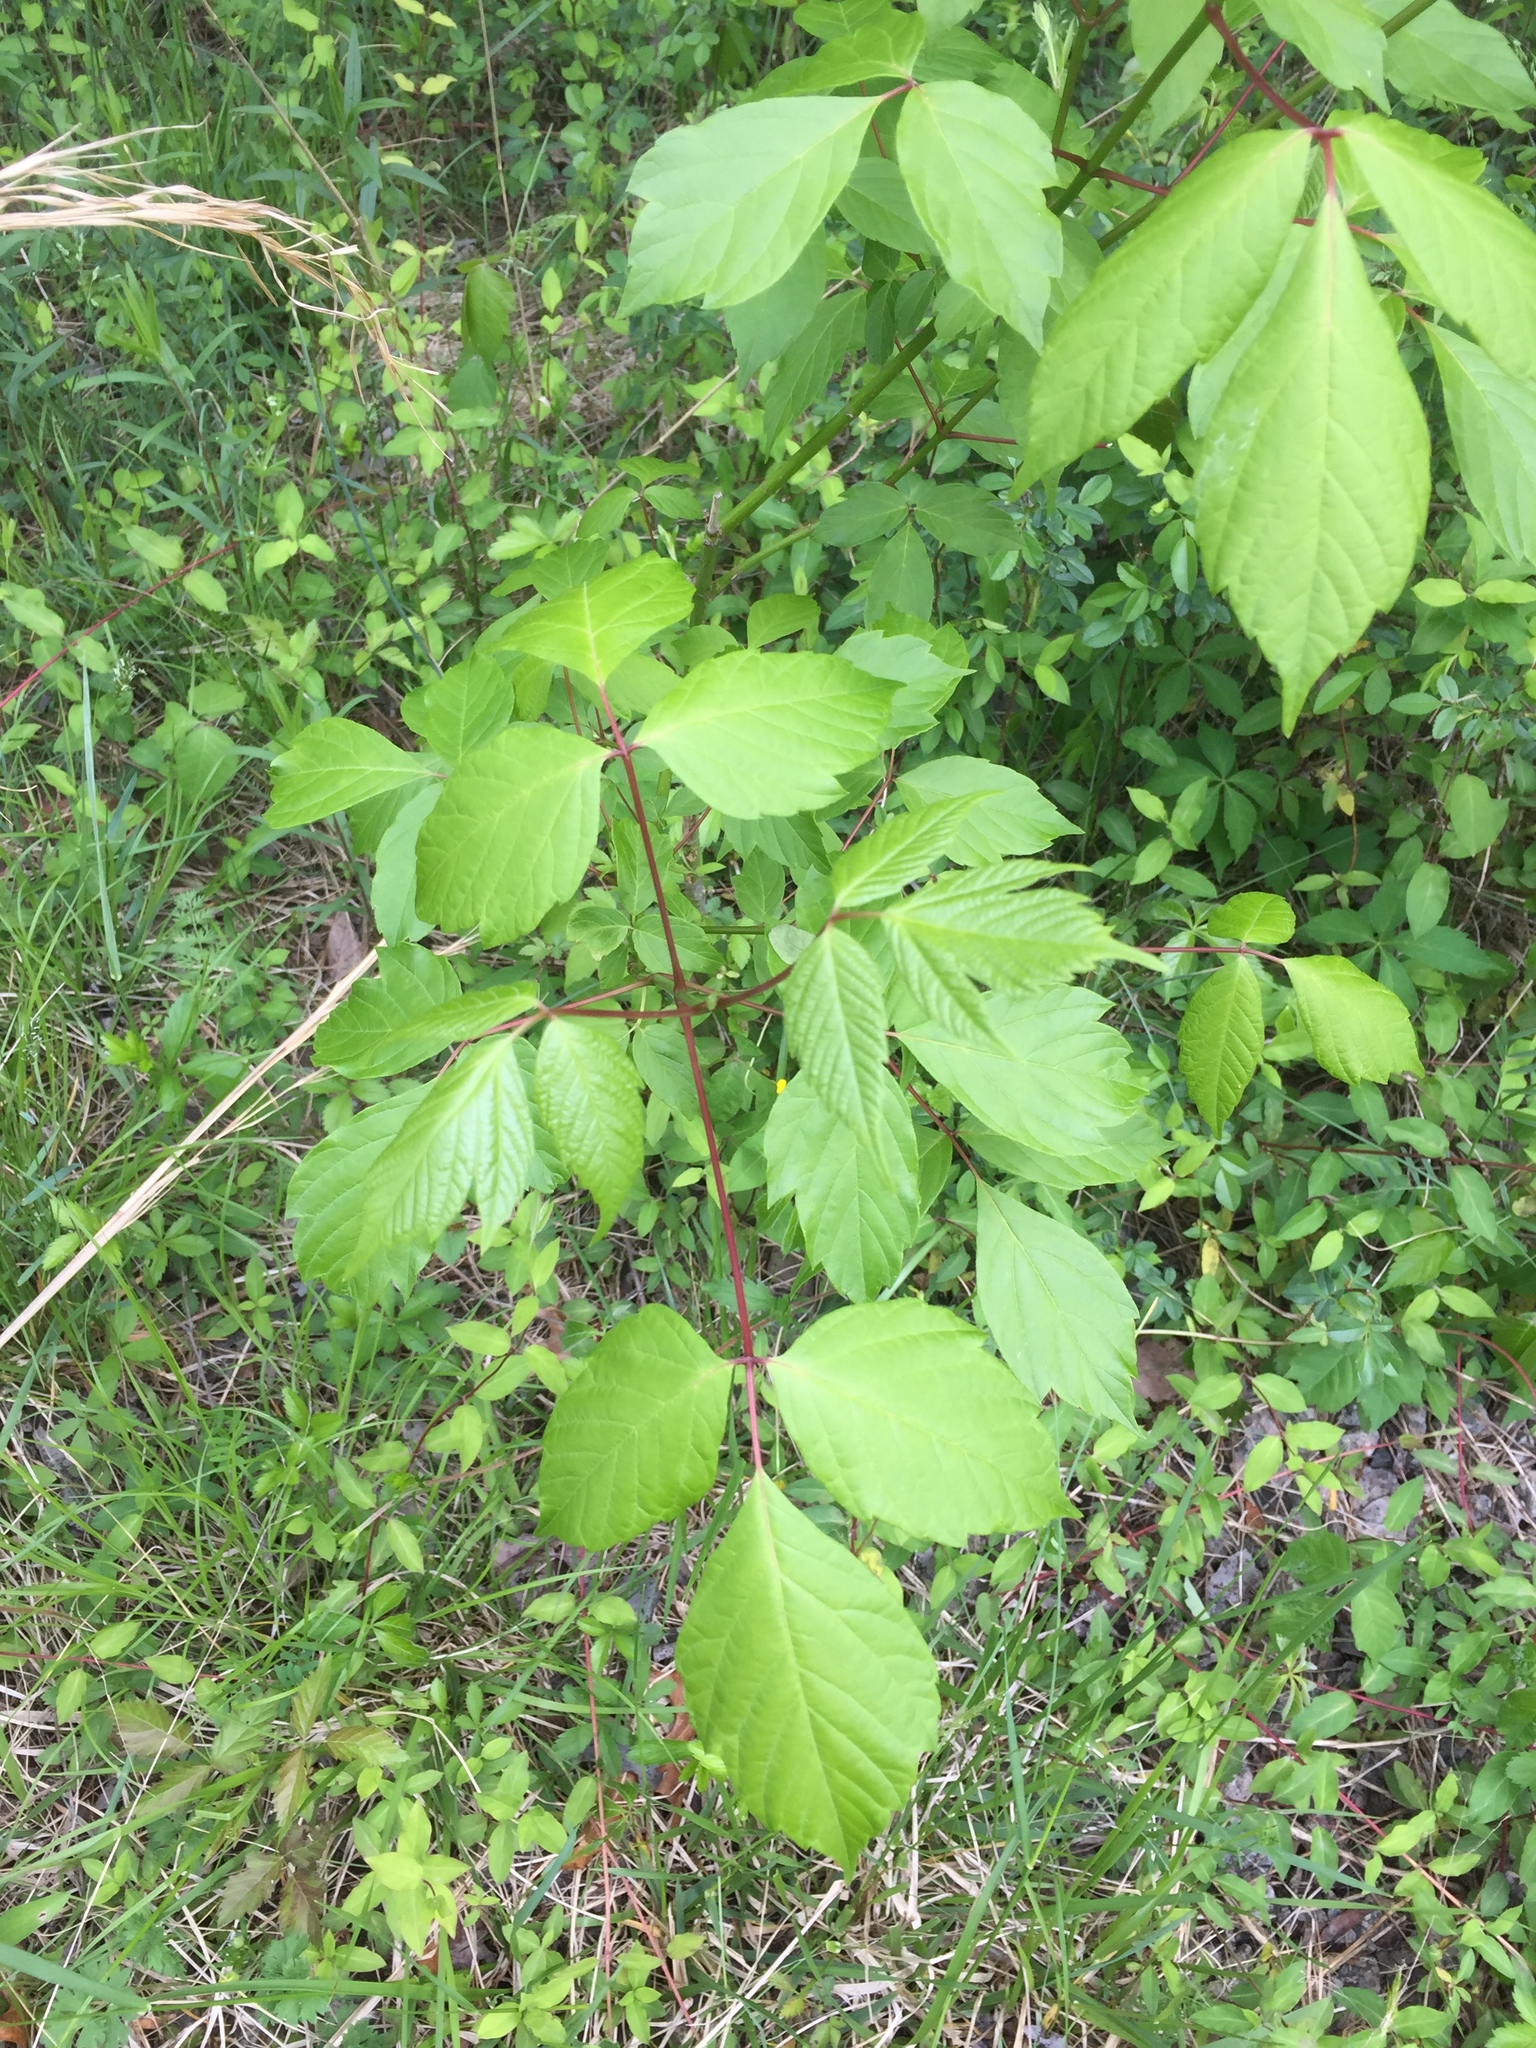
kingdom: Plantae
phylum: Tracheophyta
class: Magnoliopsida
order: Sapindales
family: Sapindaceae
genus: Acer
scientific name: Acer negundo
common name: Ashleaf maple
